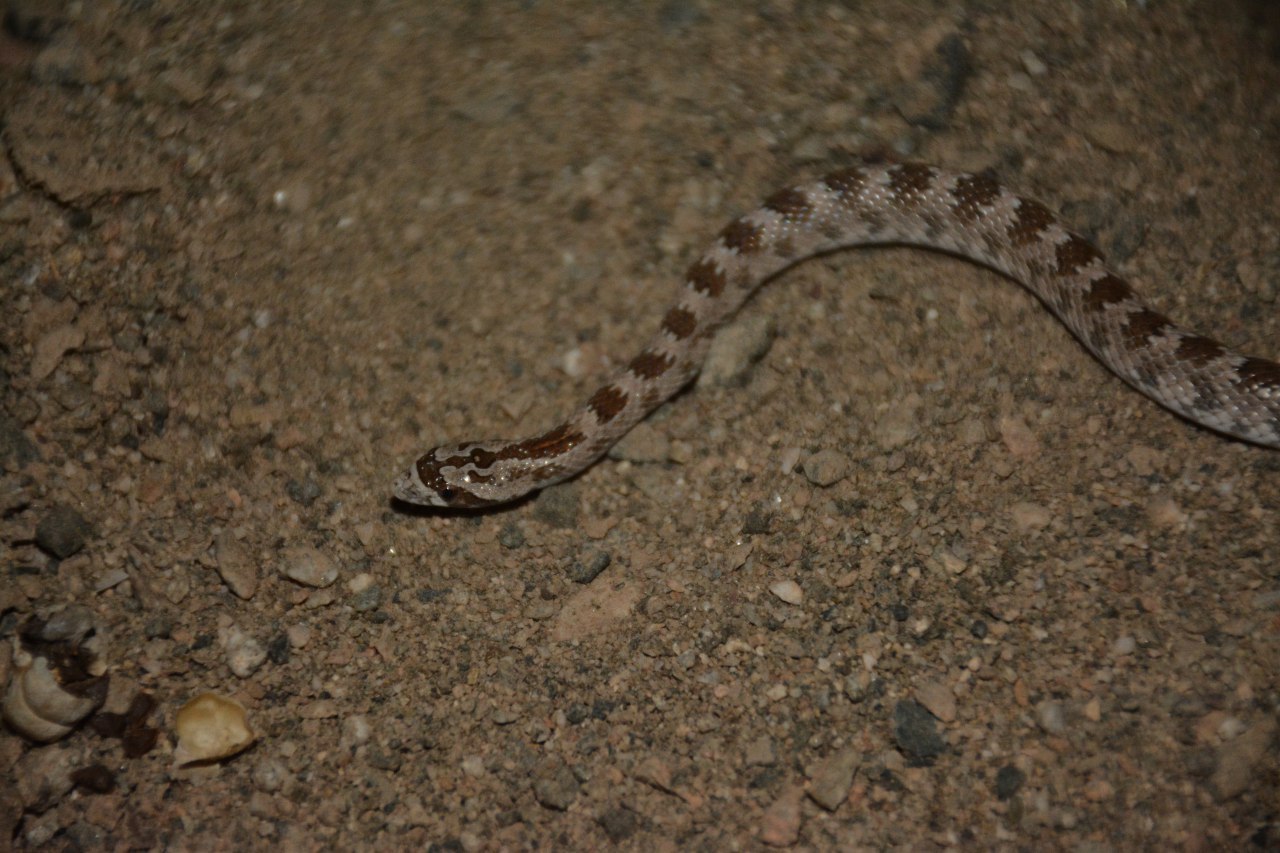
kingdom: Animalia
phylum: Chordata
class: Squamata
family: Colubridae
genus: Lytorhynchus
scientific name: Lytorhynchus ridgewayi
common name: Derafshi snake
